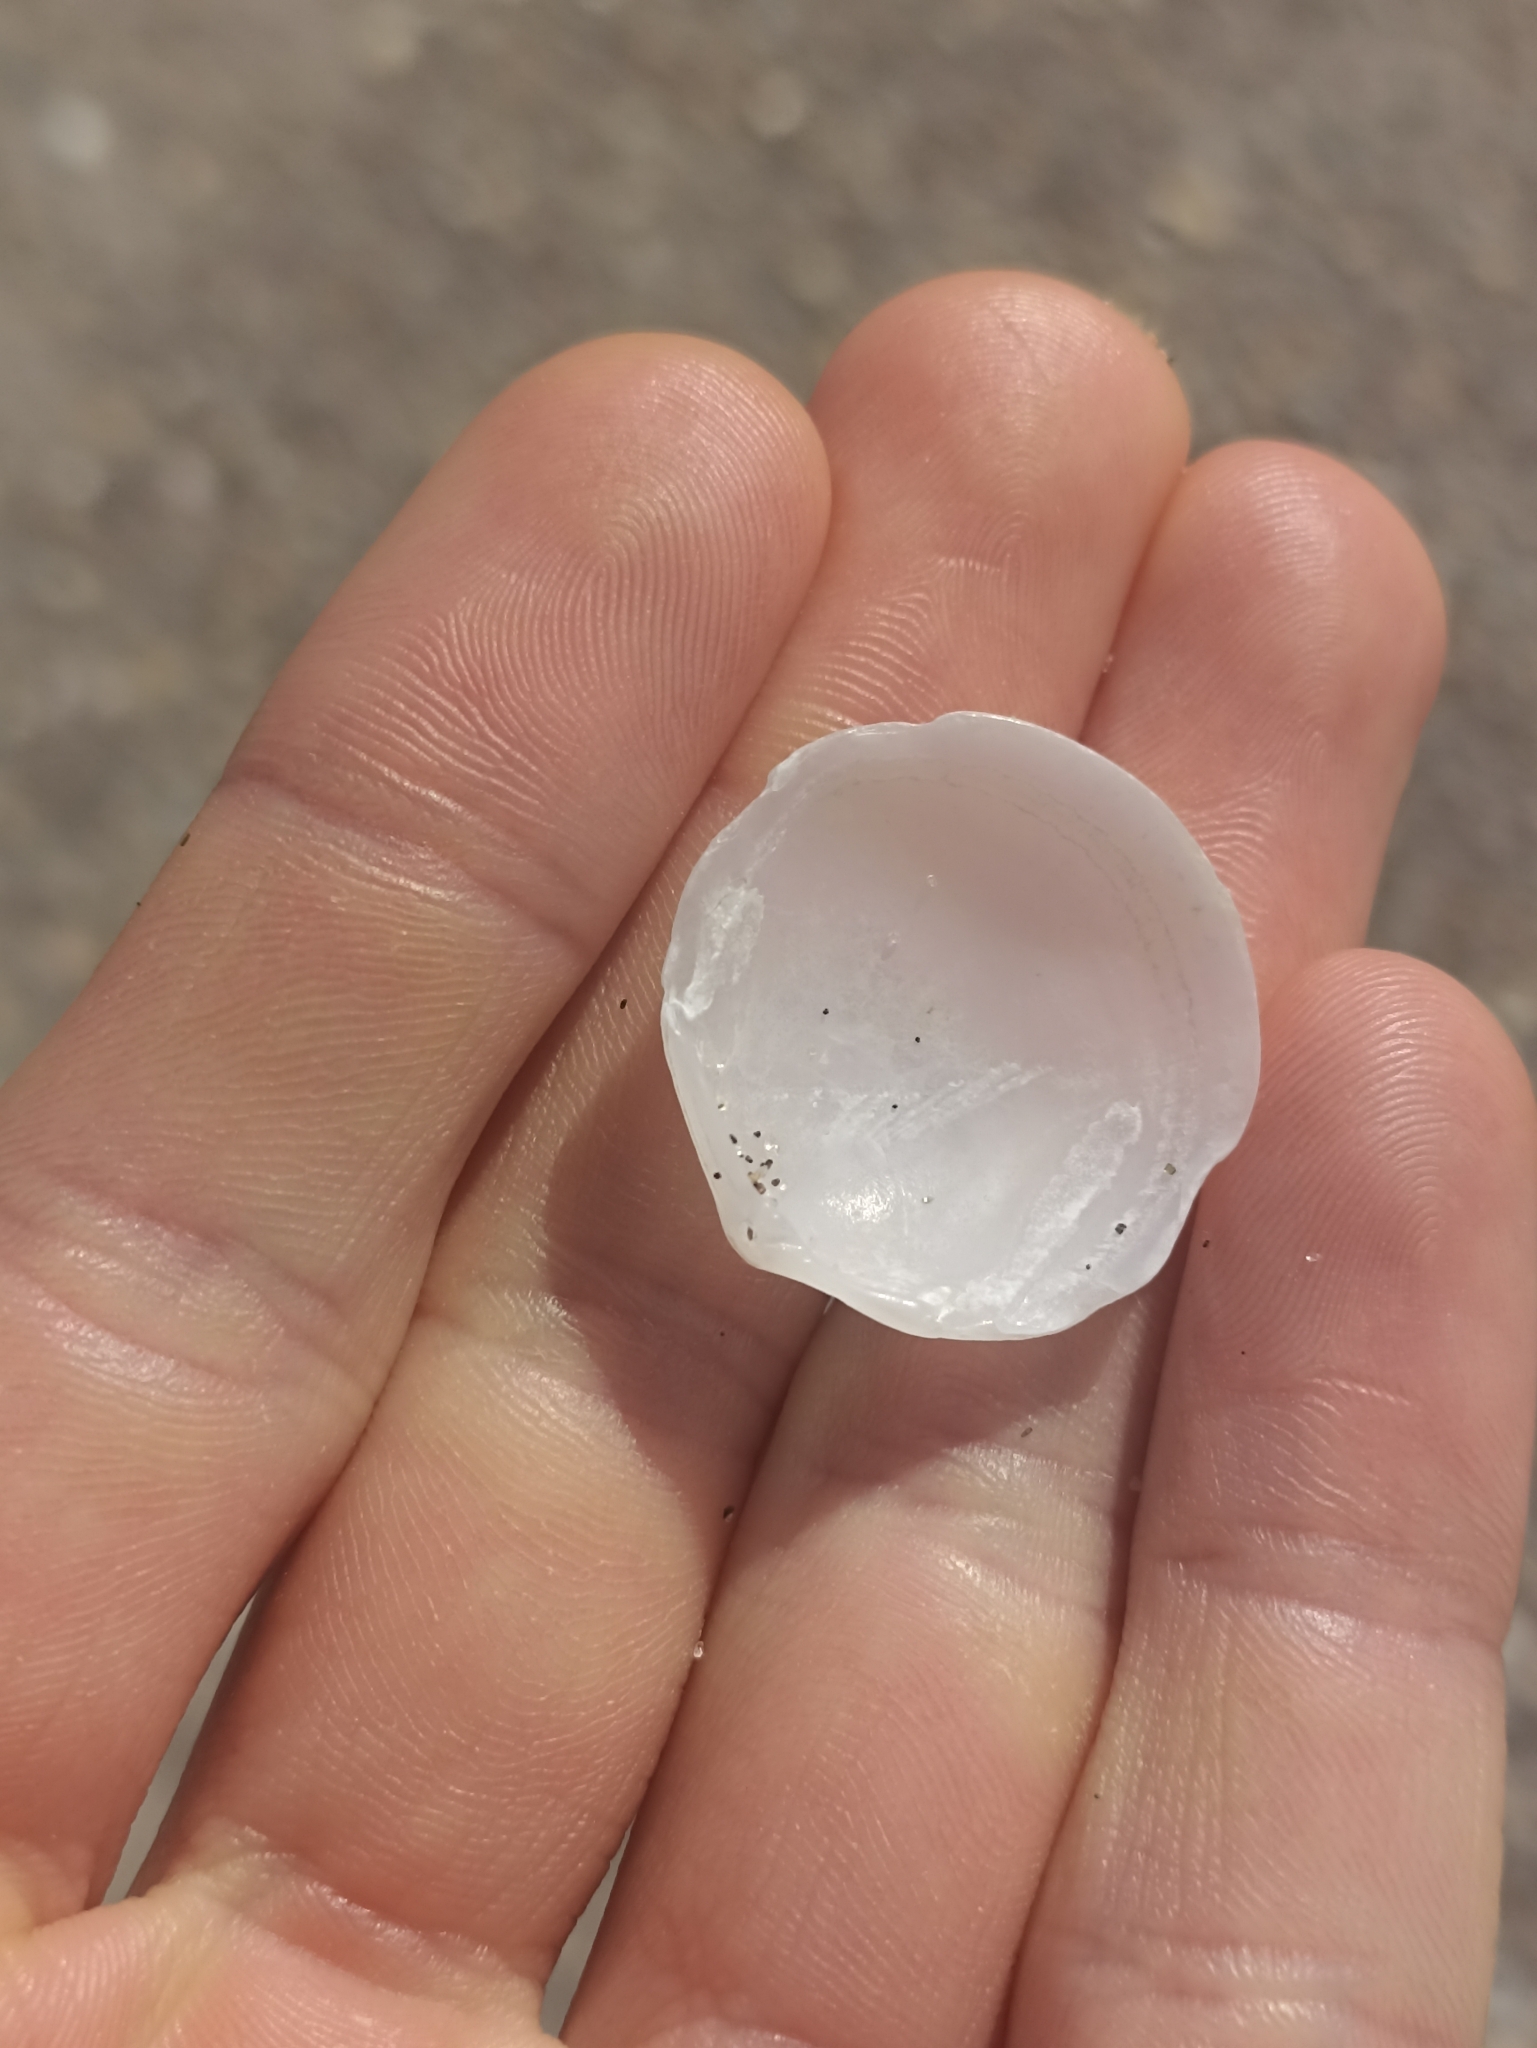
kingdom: Animalia
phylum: Mollusca
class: Bivalvia
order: Lucinida
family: Lucinidae
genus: Divalucina
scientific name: Divalucina cumingi
